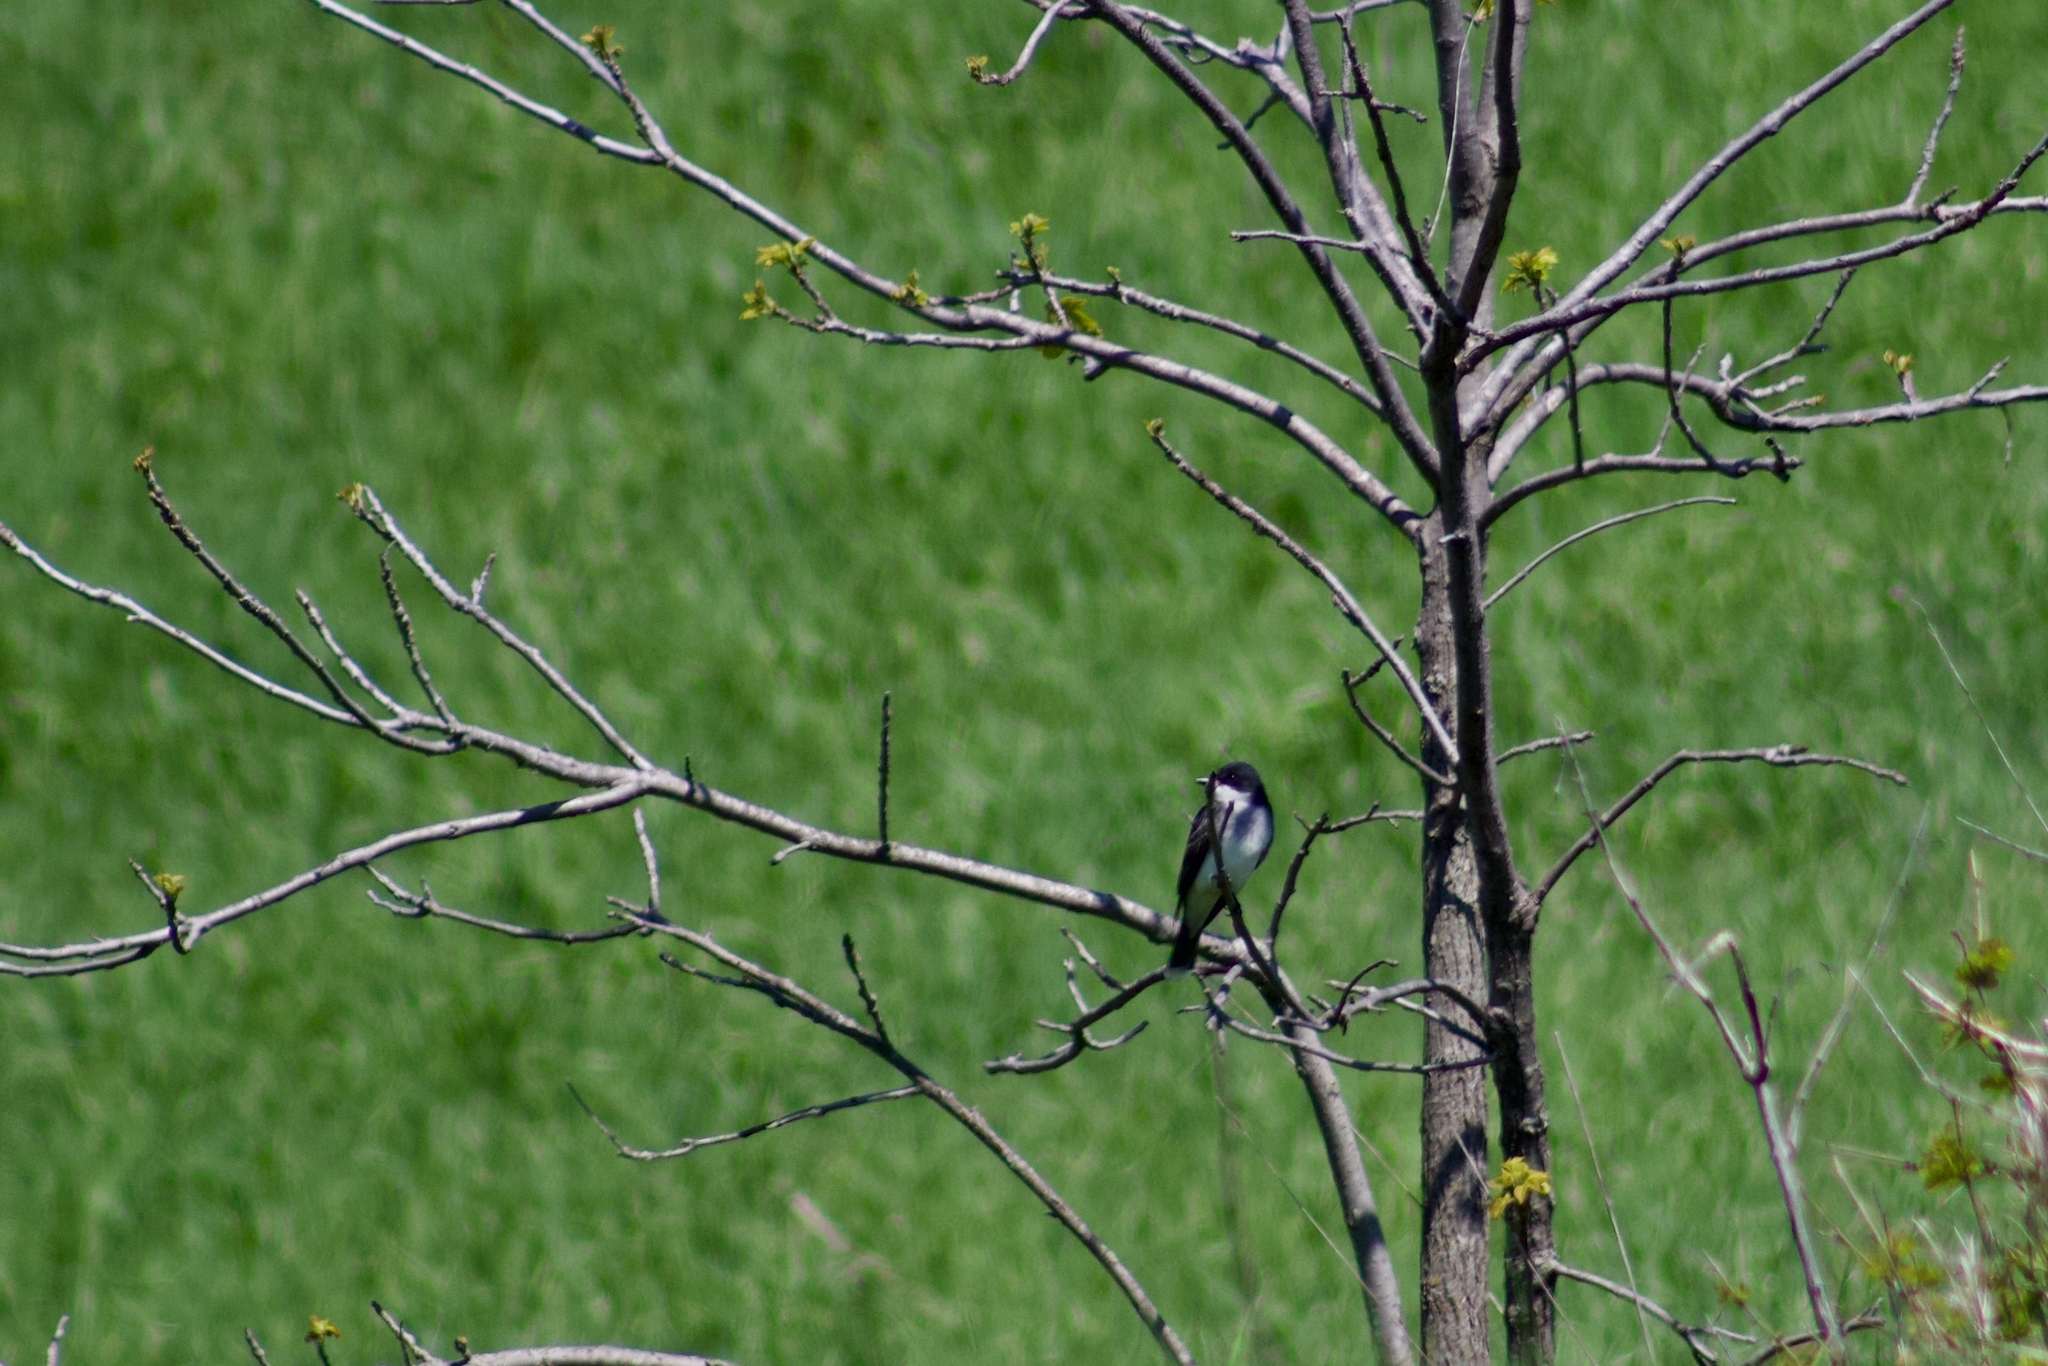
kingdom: Animalia
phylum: Chordata
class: Aves
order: Passeriformes
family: Tyrannidae
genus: Tyrannus
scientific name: Tyrannus tyrannus
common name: Eastern kingbird
